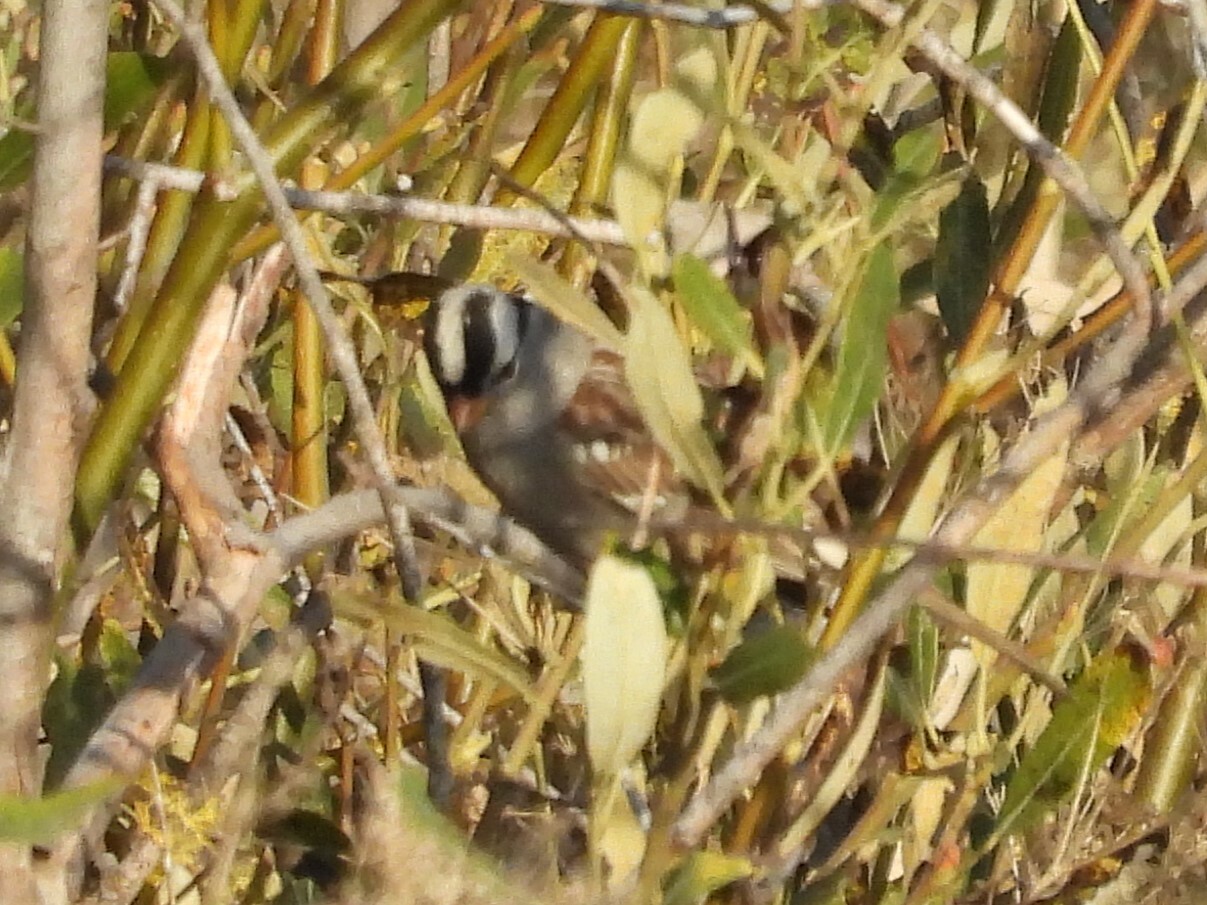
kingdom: Animalia
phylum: Chordata
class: Aves
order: Passeriformes
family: Passerellidae
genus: Zonotrichia
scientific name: Zonotrichia leucophrys
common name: White-crowned sparrow
